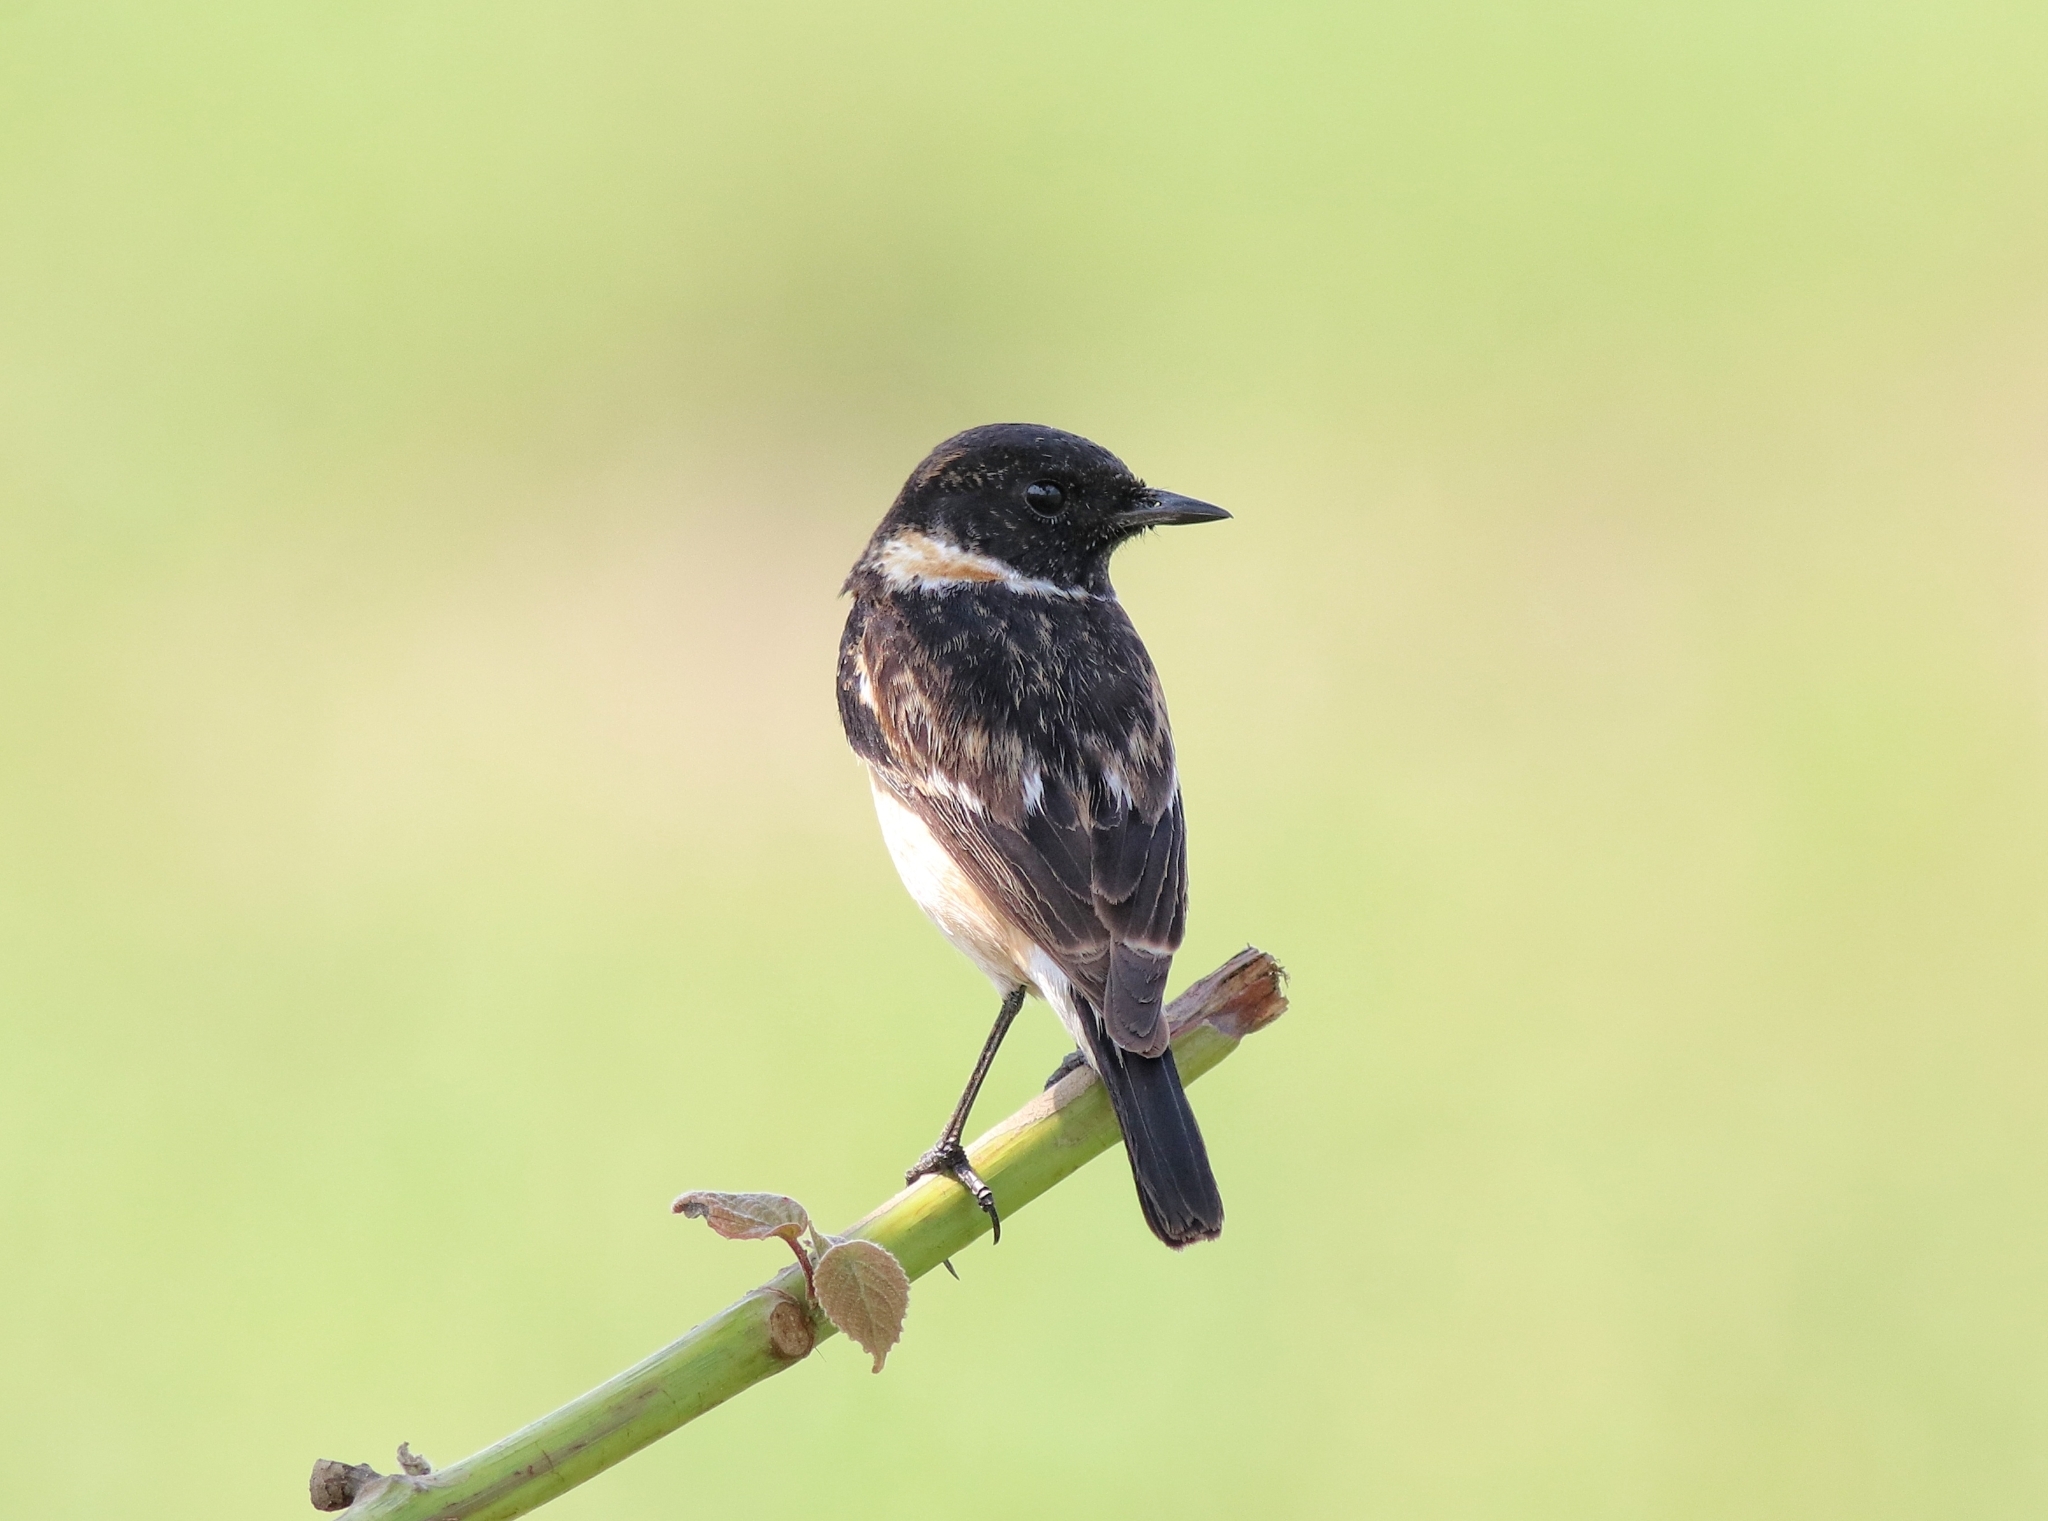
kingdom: Animalia
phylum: Chordata
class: Aves
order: Passeriformes
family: Muscicapidae
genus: Saxicola
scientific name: Saxicola maurus
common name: Siberian stonechat
